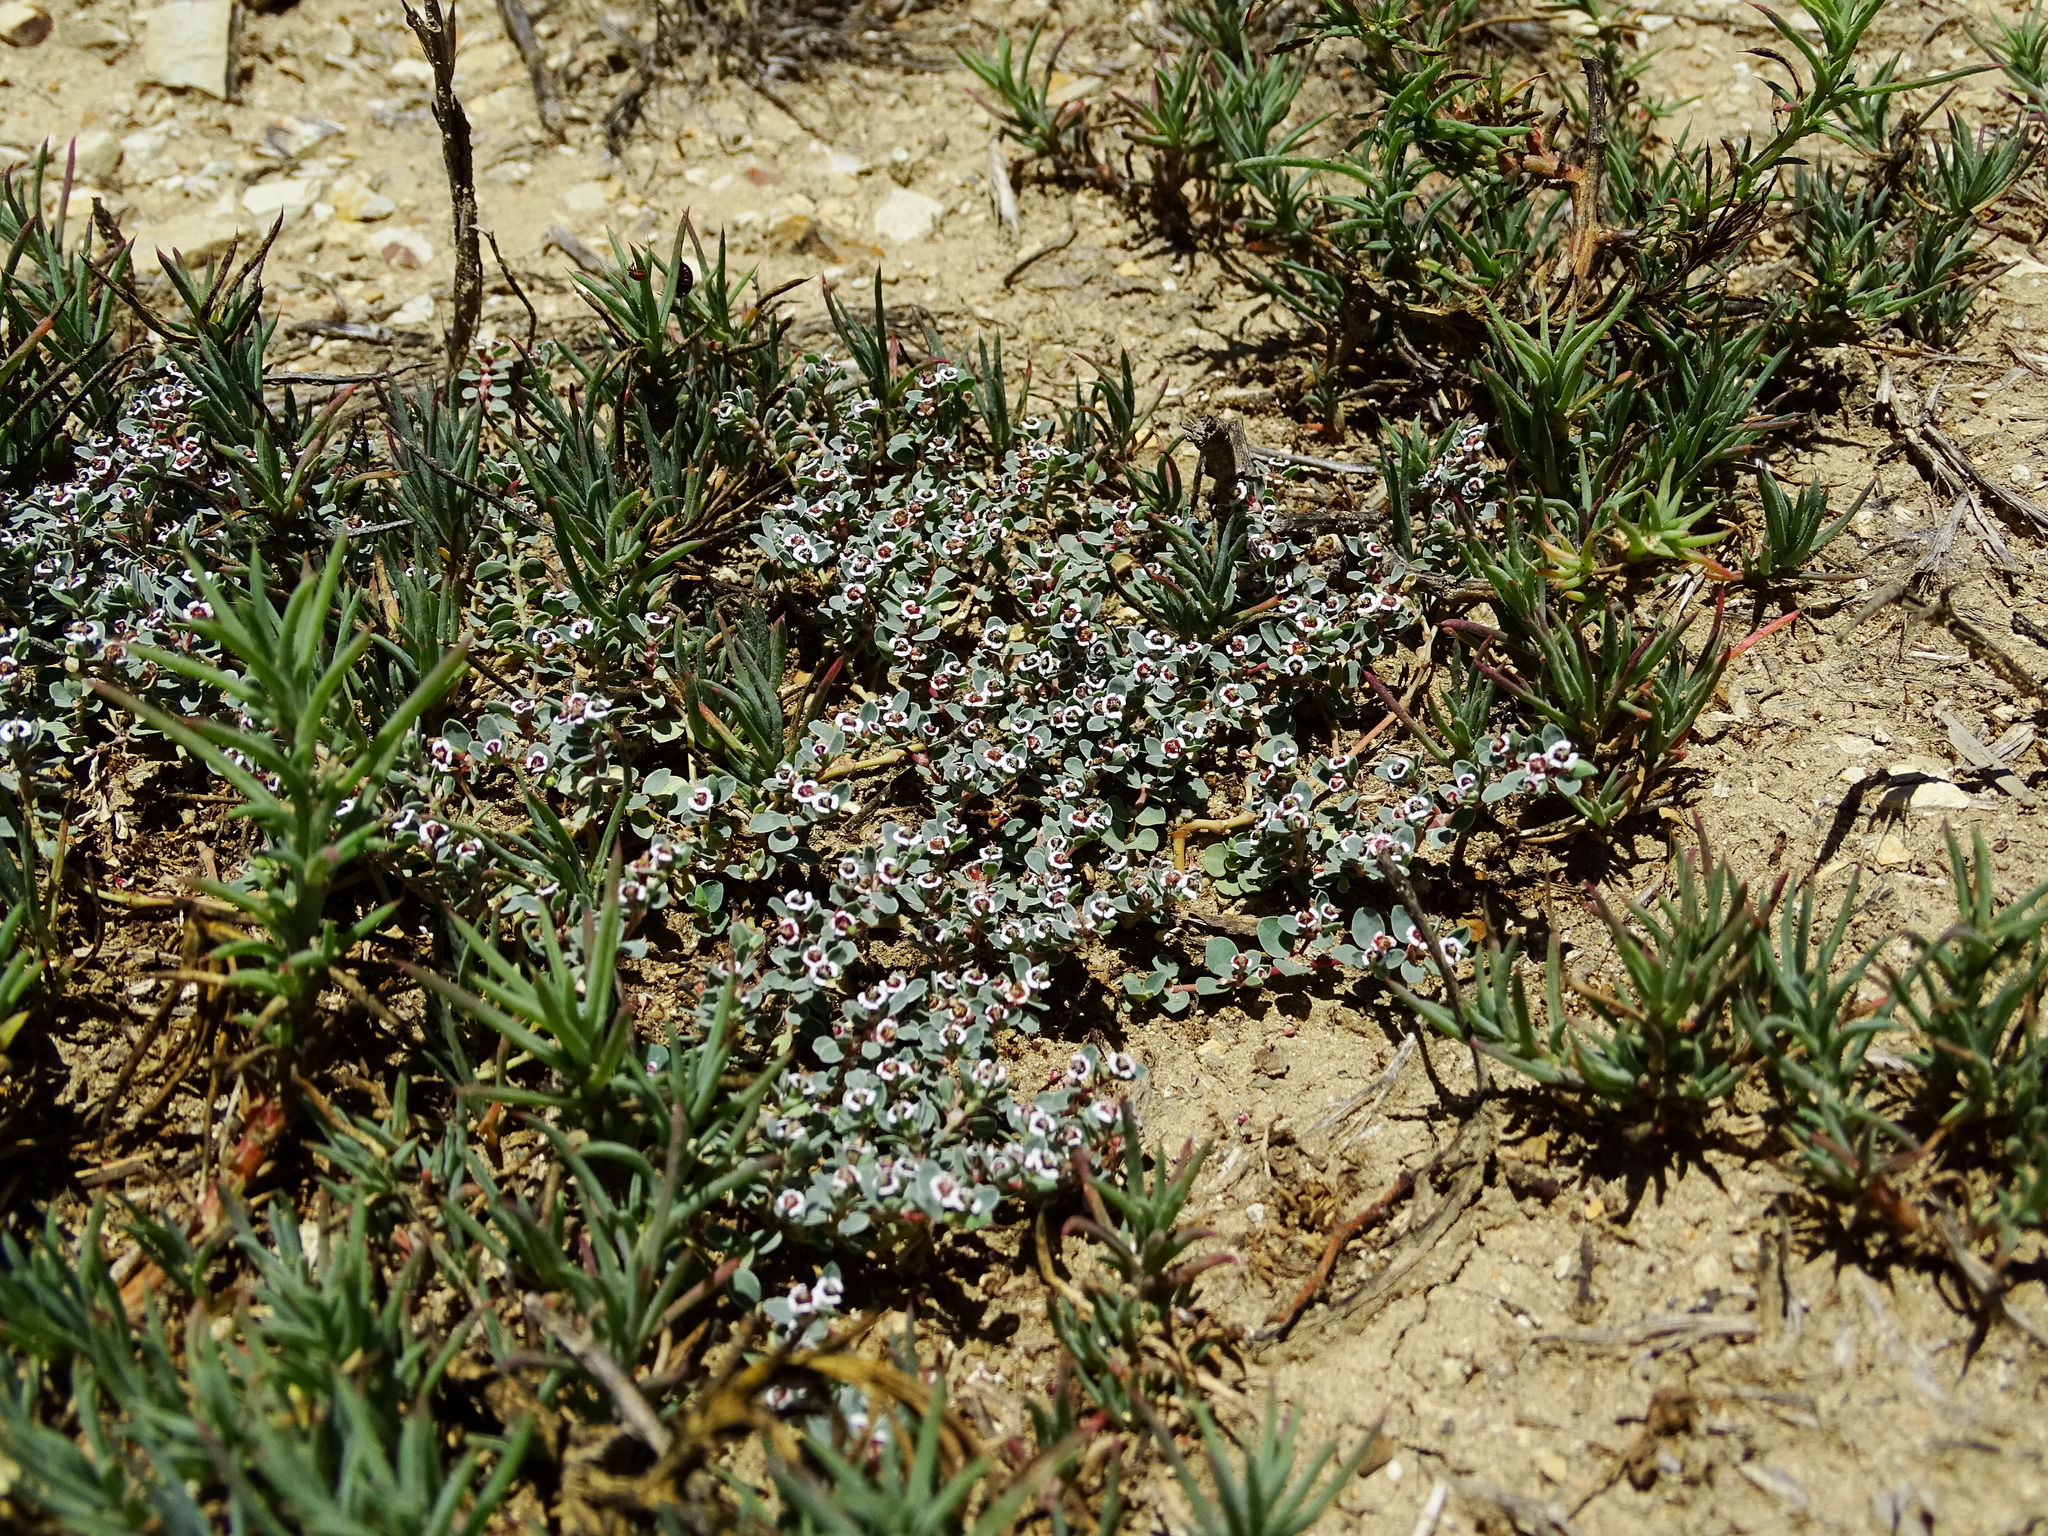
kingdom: Plantae
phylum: Tracheophyta
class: Magnoliopsida
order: Malpighiales
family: Euphorbiaceae
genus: Euphorbia
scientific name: Euphorbia albomarginata
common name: Whitemargin sandmat
